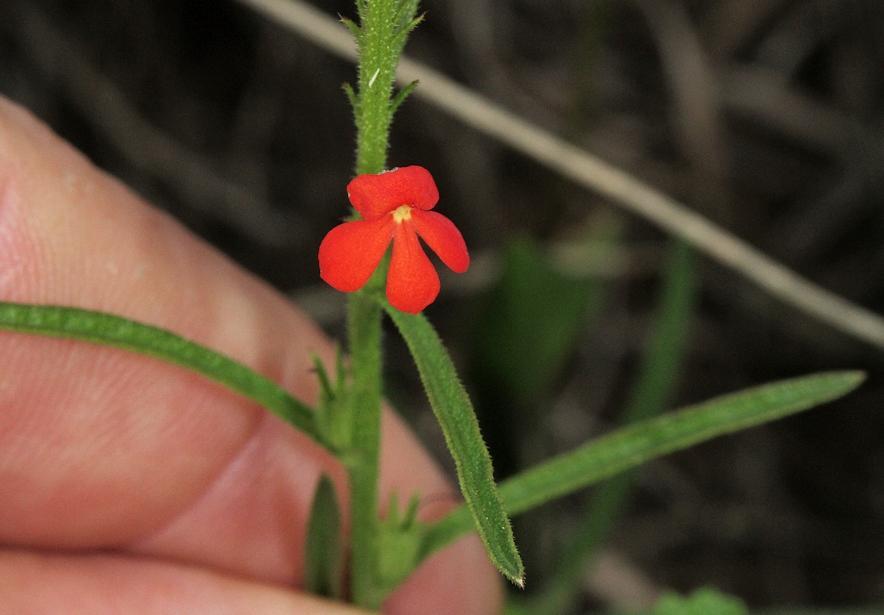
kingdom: Plantae
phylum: Tracheophyta
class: Magnoliopsida
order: Lamiales
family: Orobanchaceae
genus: Striga
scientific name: Striga asiatica
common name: Asiatic witchweed
